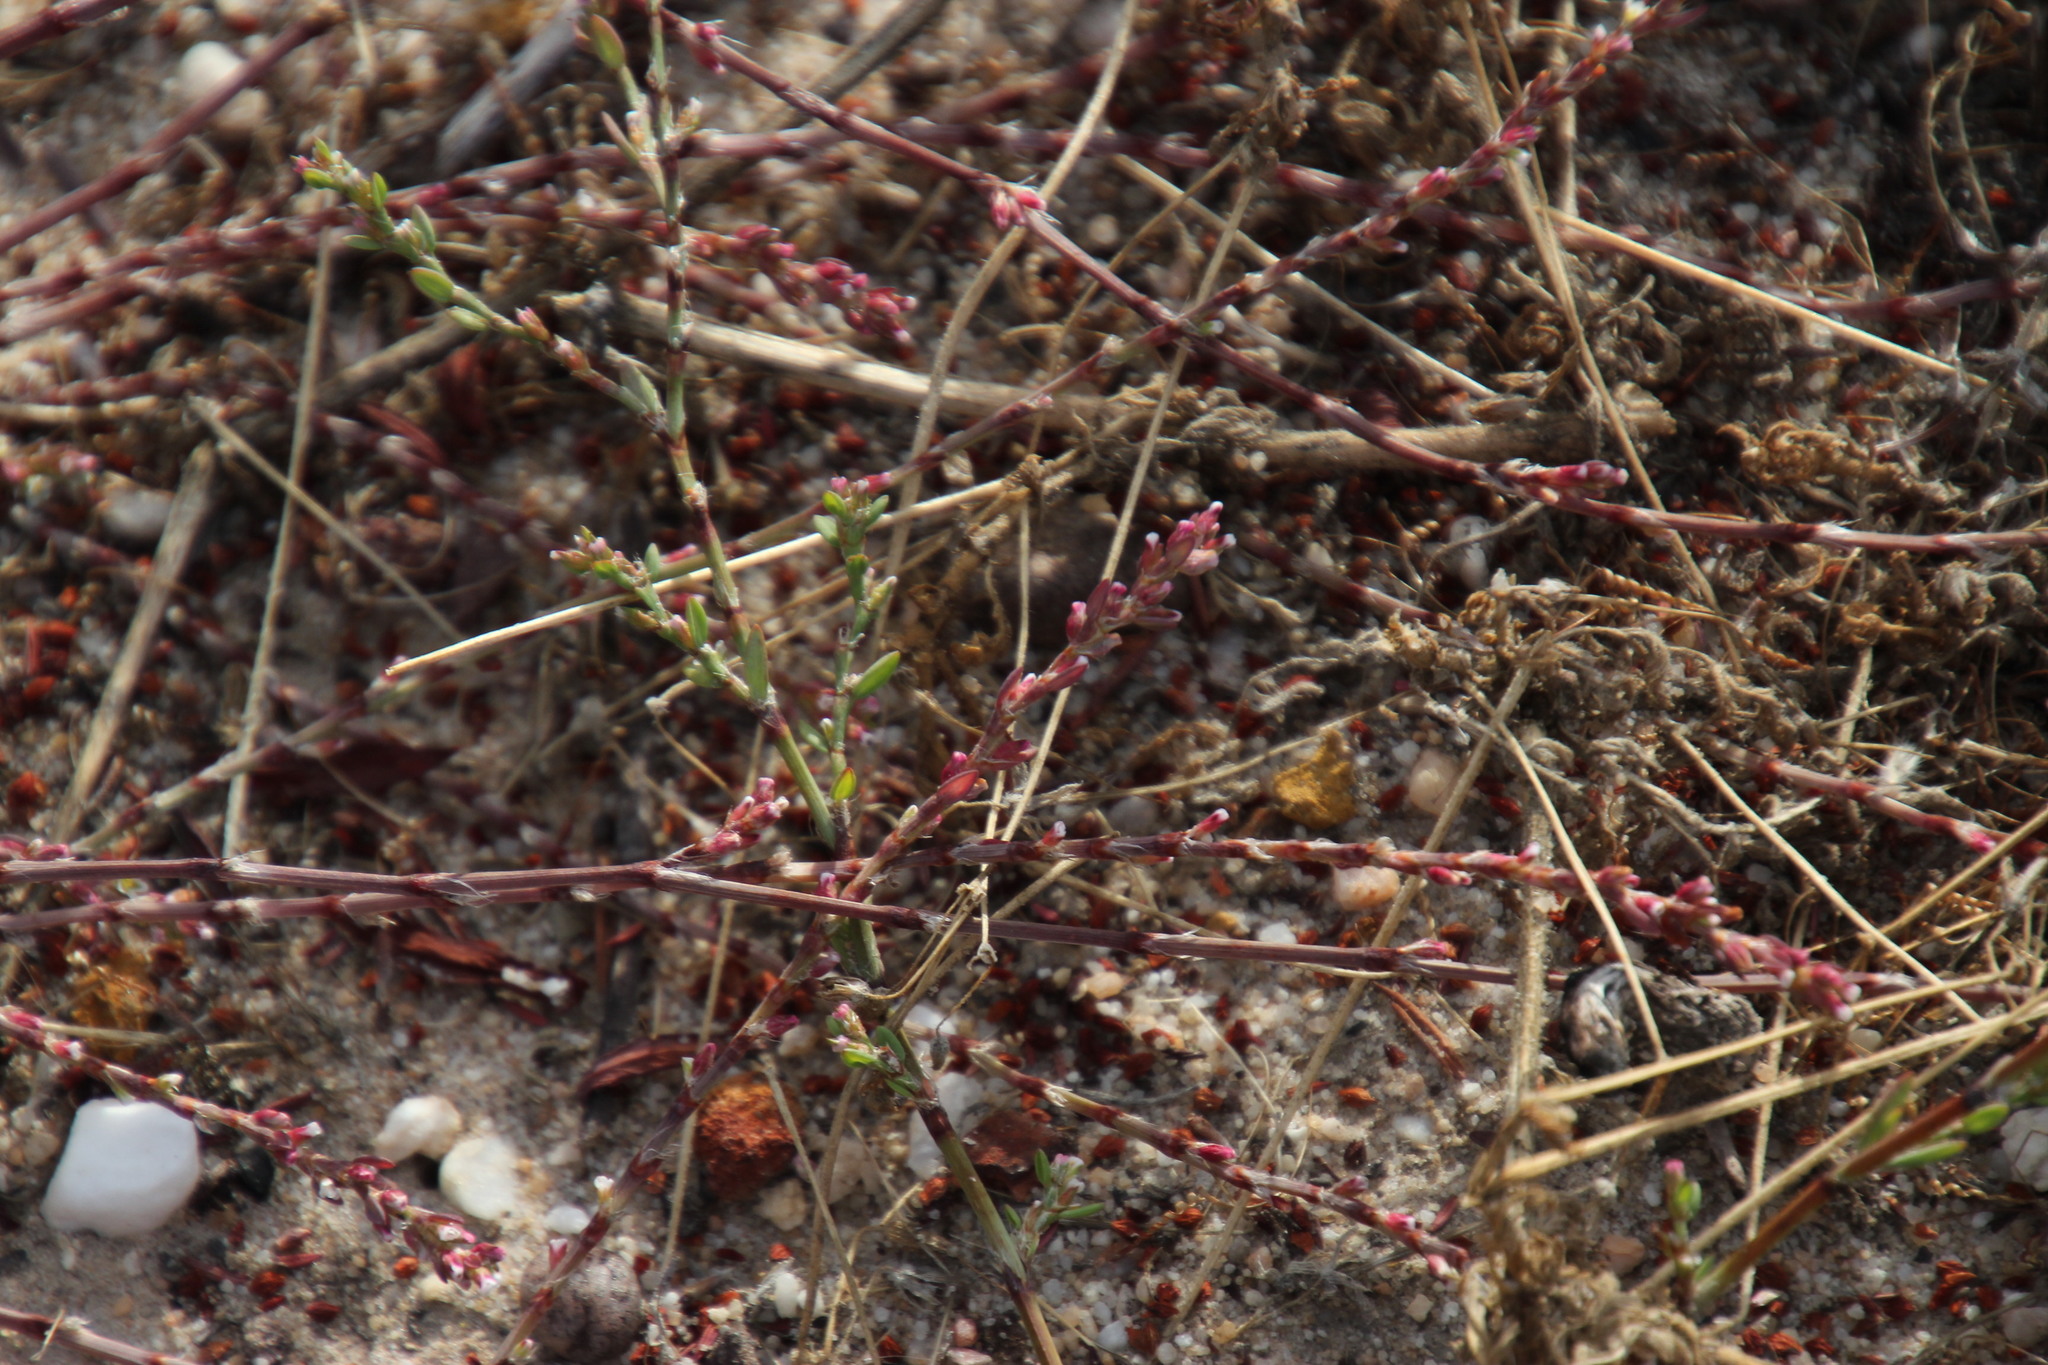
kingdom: Plantae
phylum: Tracheophyta
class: Magnoliopsida
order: Caryophyllales
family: Polygonaceae
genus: Polygonum
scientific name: Polygonum aviculare
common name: Prostrate knotweed
